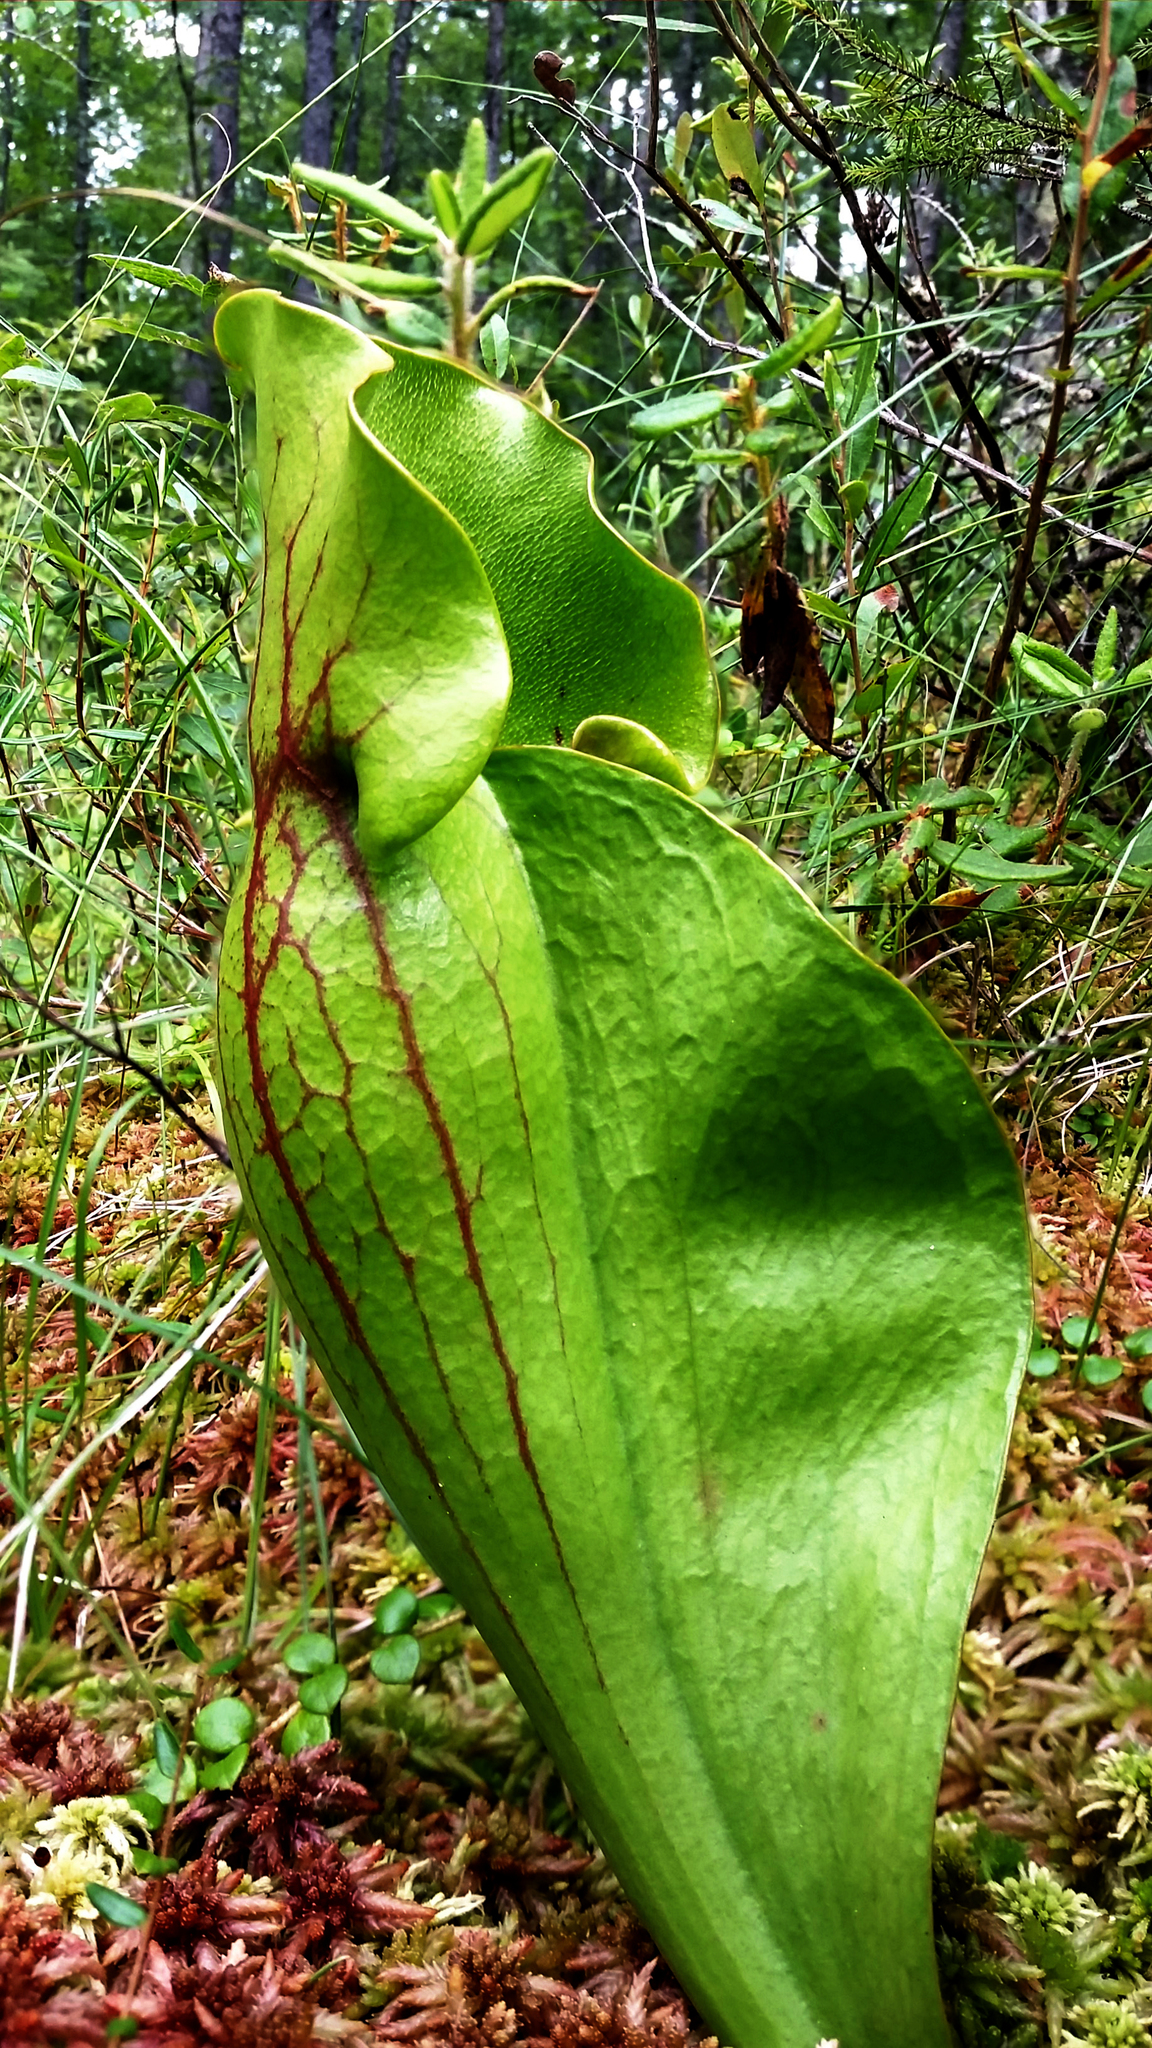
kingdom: Plantae
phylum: Tracheophyta
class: Magnoliopsida
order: Ericales
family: Sarraceniaceae
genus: Sarracenia
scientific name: Sarracenia purpurea
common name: Pitcherplant
